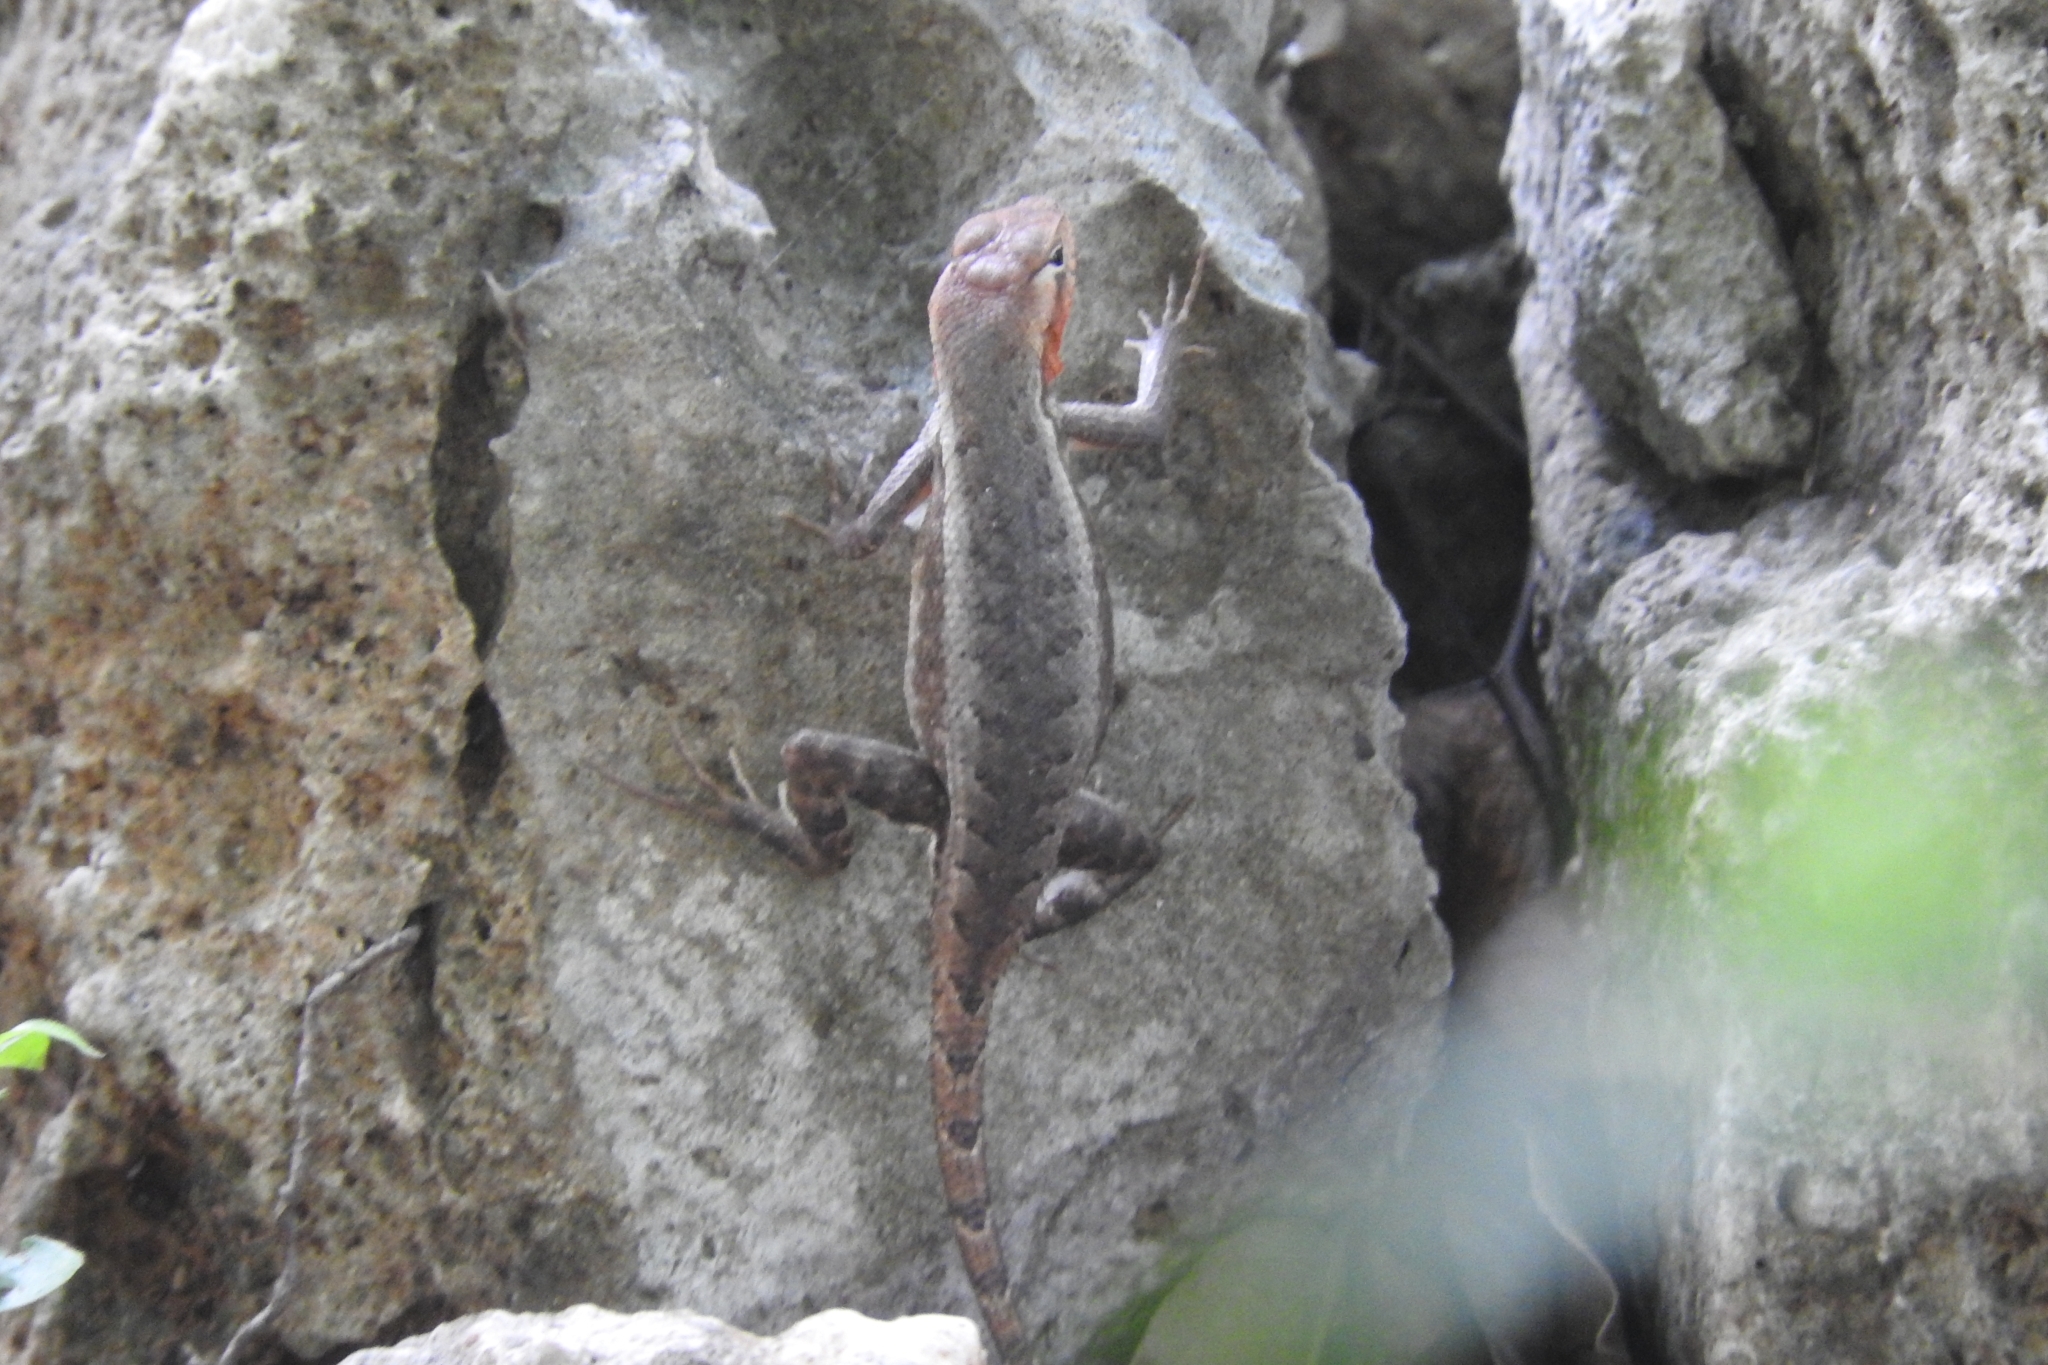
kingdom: Animalia
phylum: Chordata
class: Squamata
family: Phrynosomatidae
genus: Sceloporus
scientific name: Sceloporus chrysostictus
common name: Yellow-spotted spiny lizard
